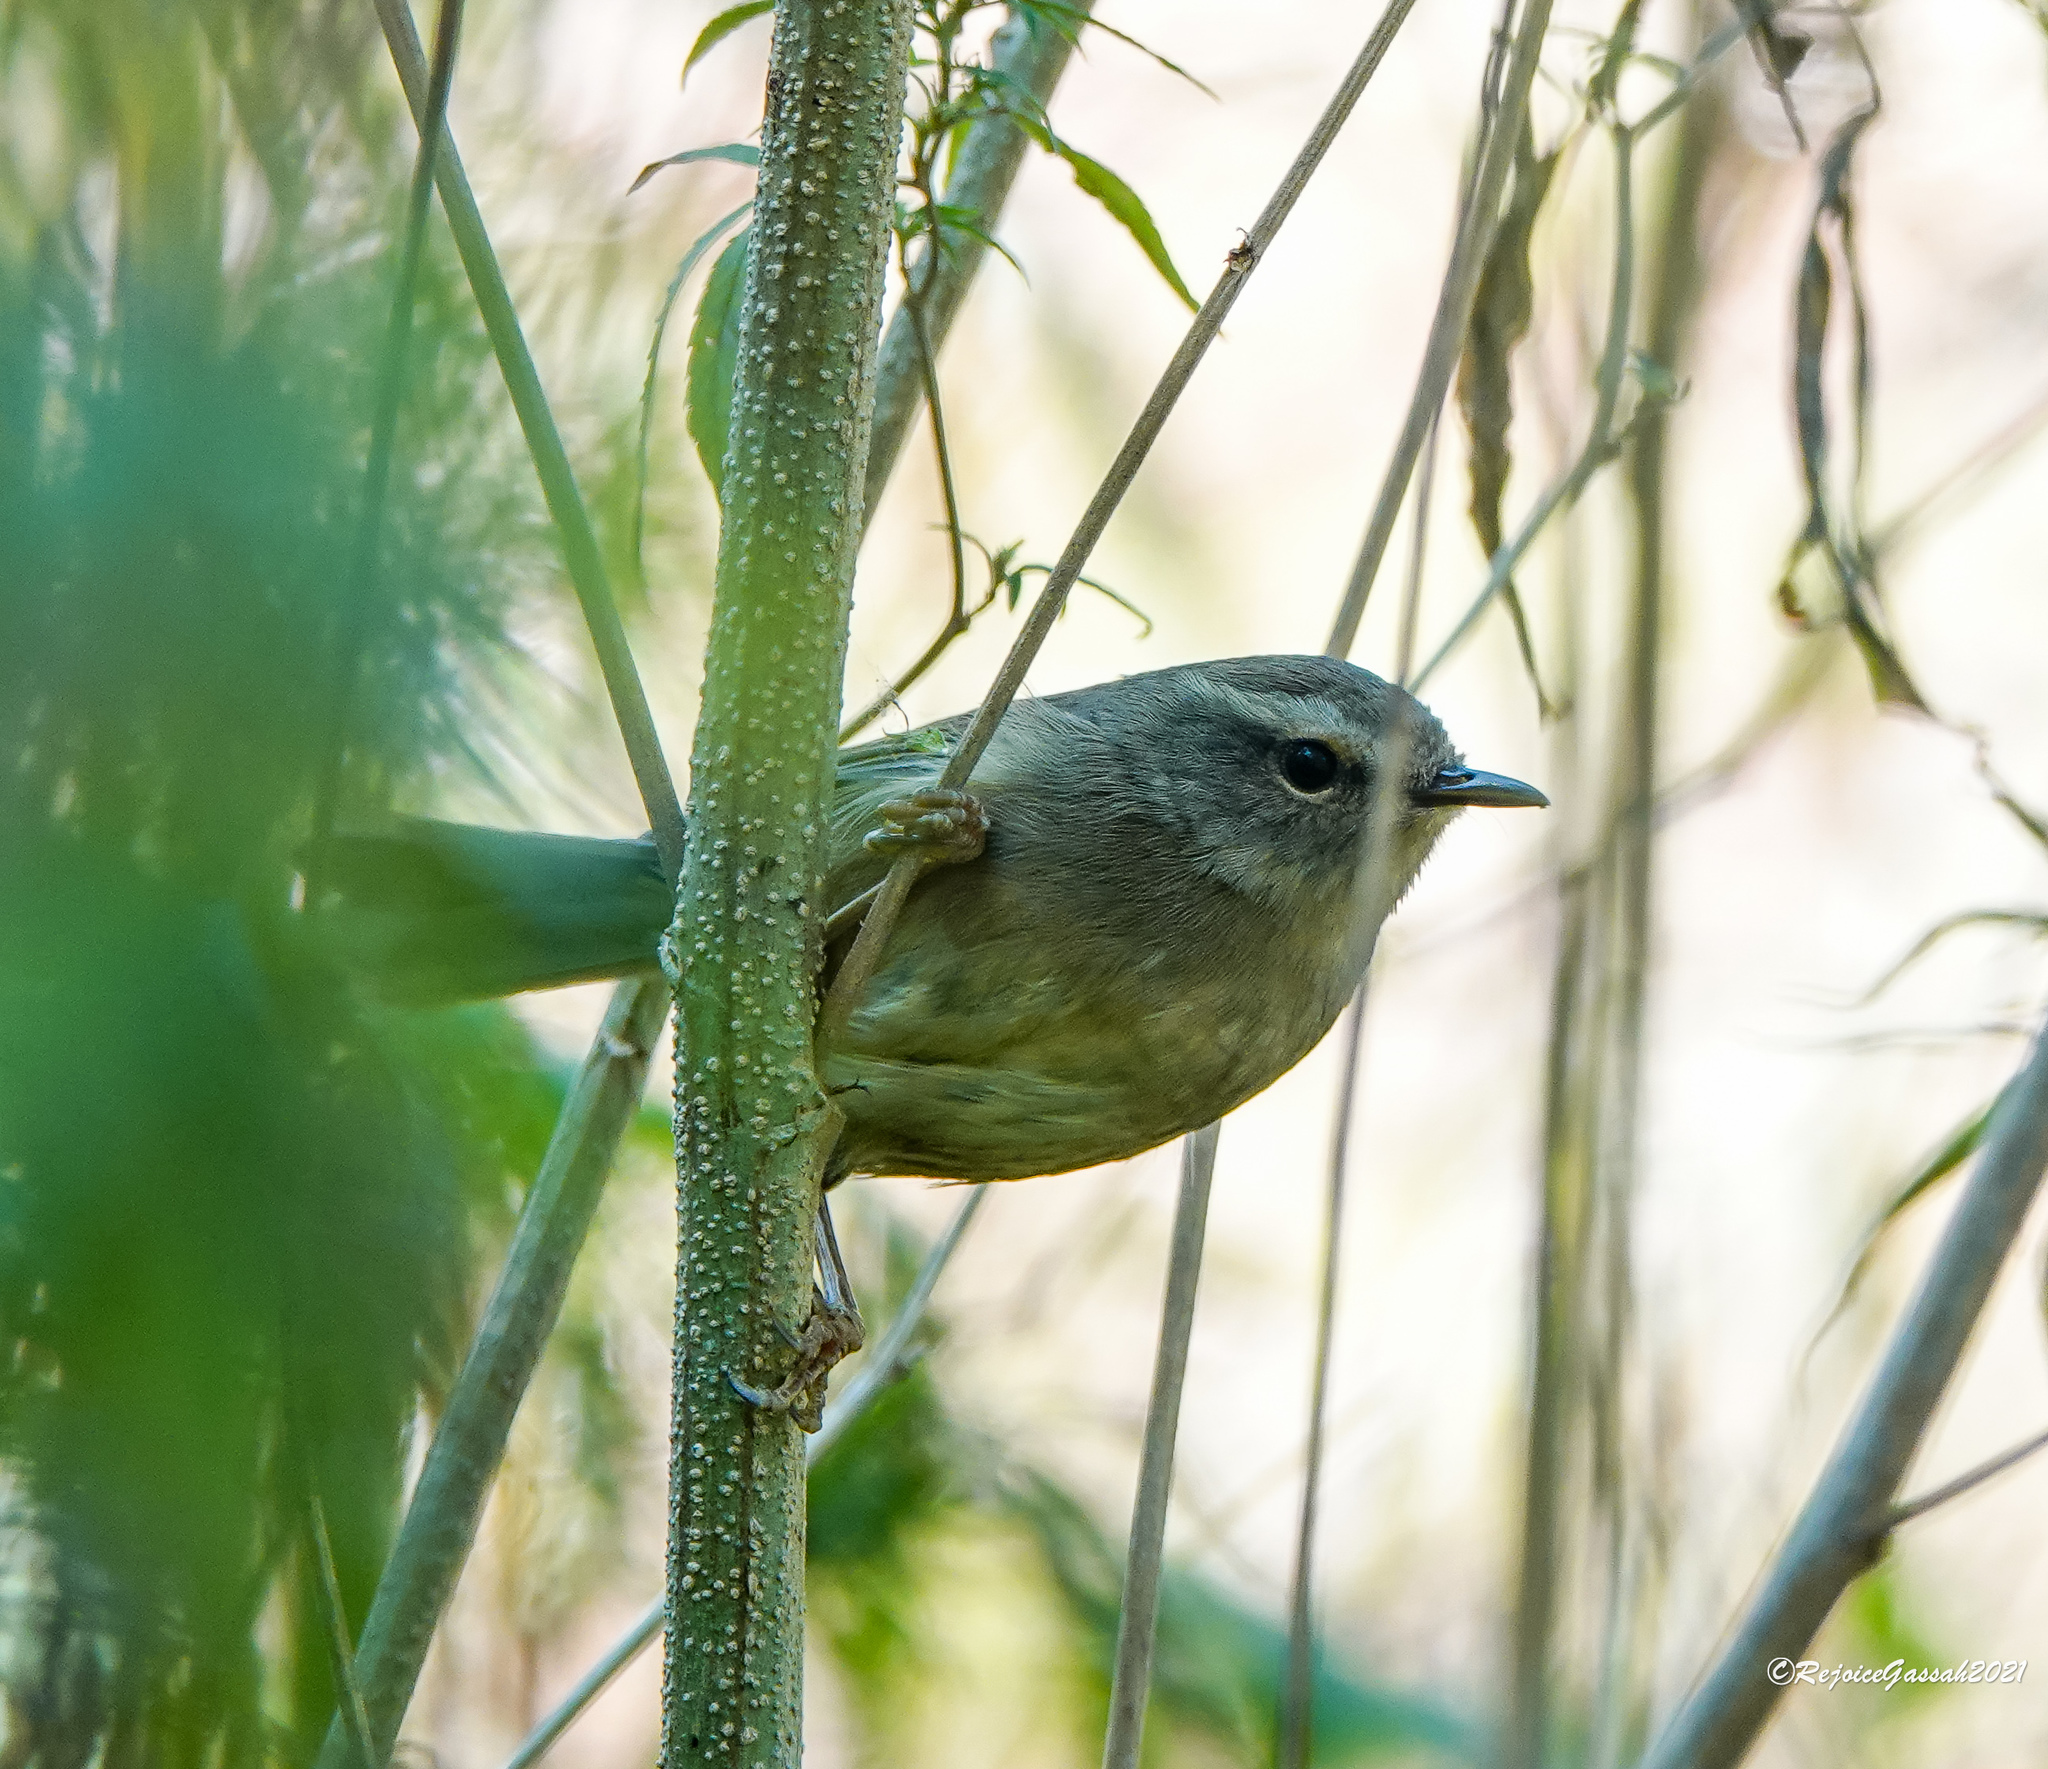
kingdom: Animalia
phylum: Chordata
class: Aves
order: Passeriformes
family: Cettiidae
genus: Horornis
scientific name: Horornis fortipes
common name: Brown-flanked bush warbler
